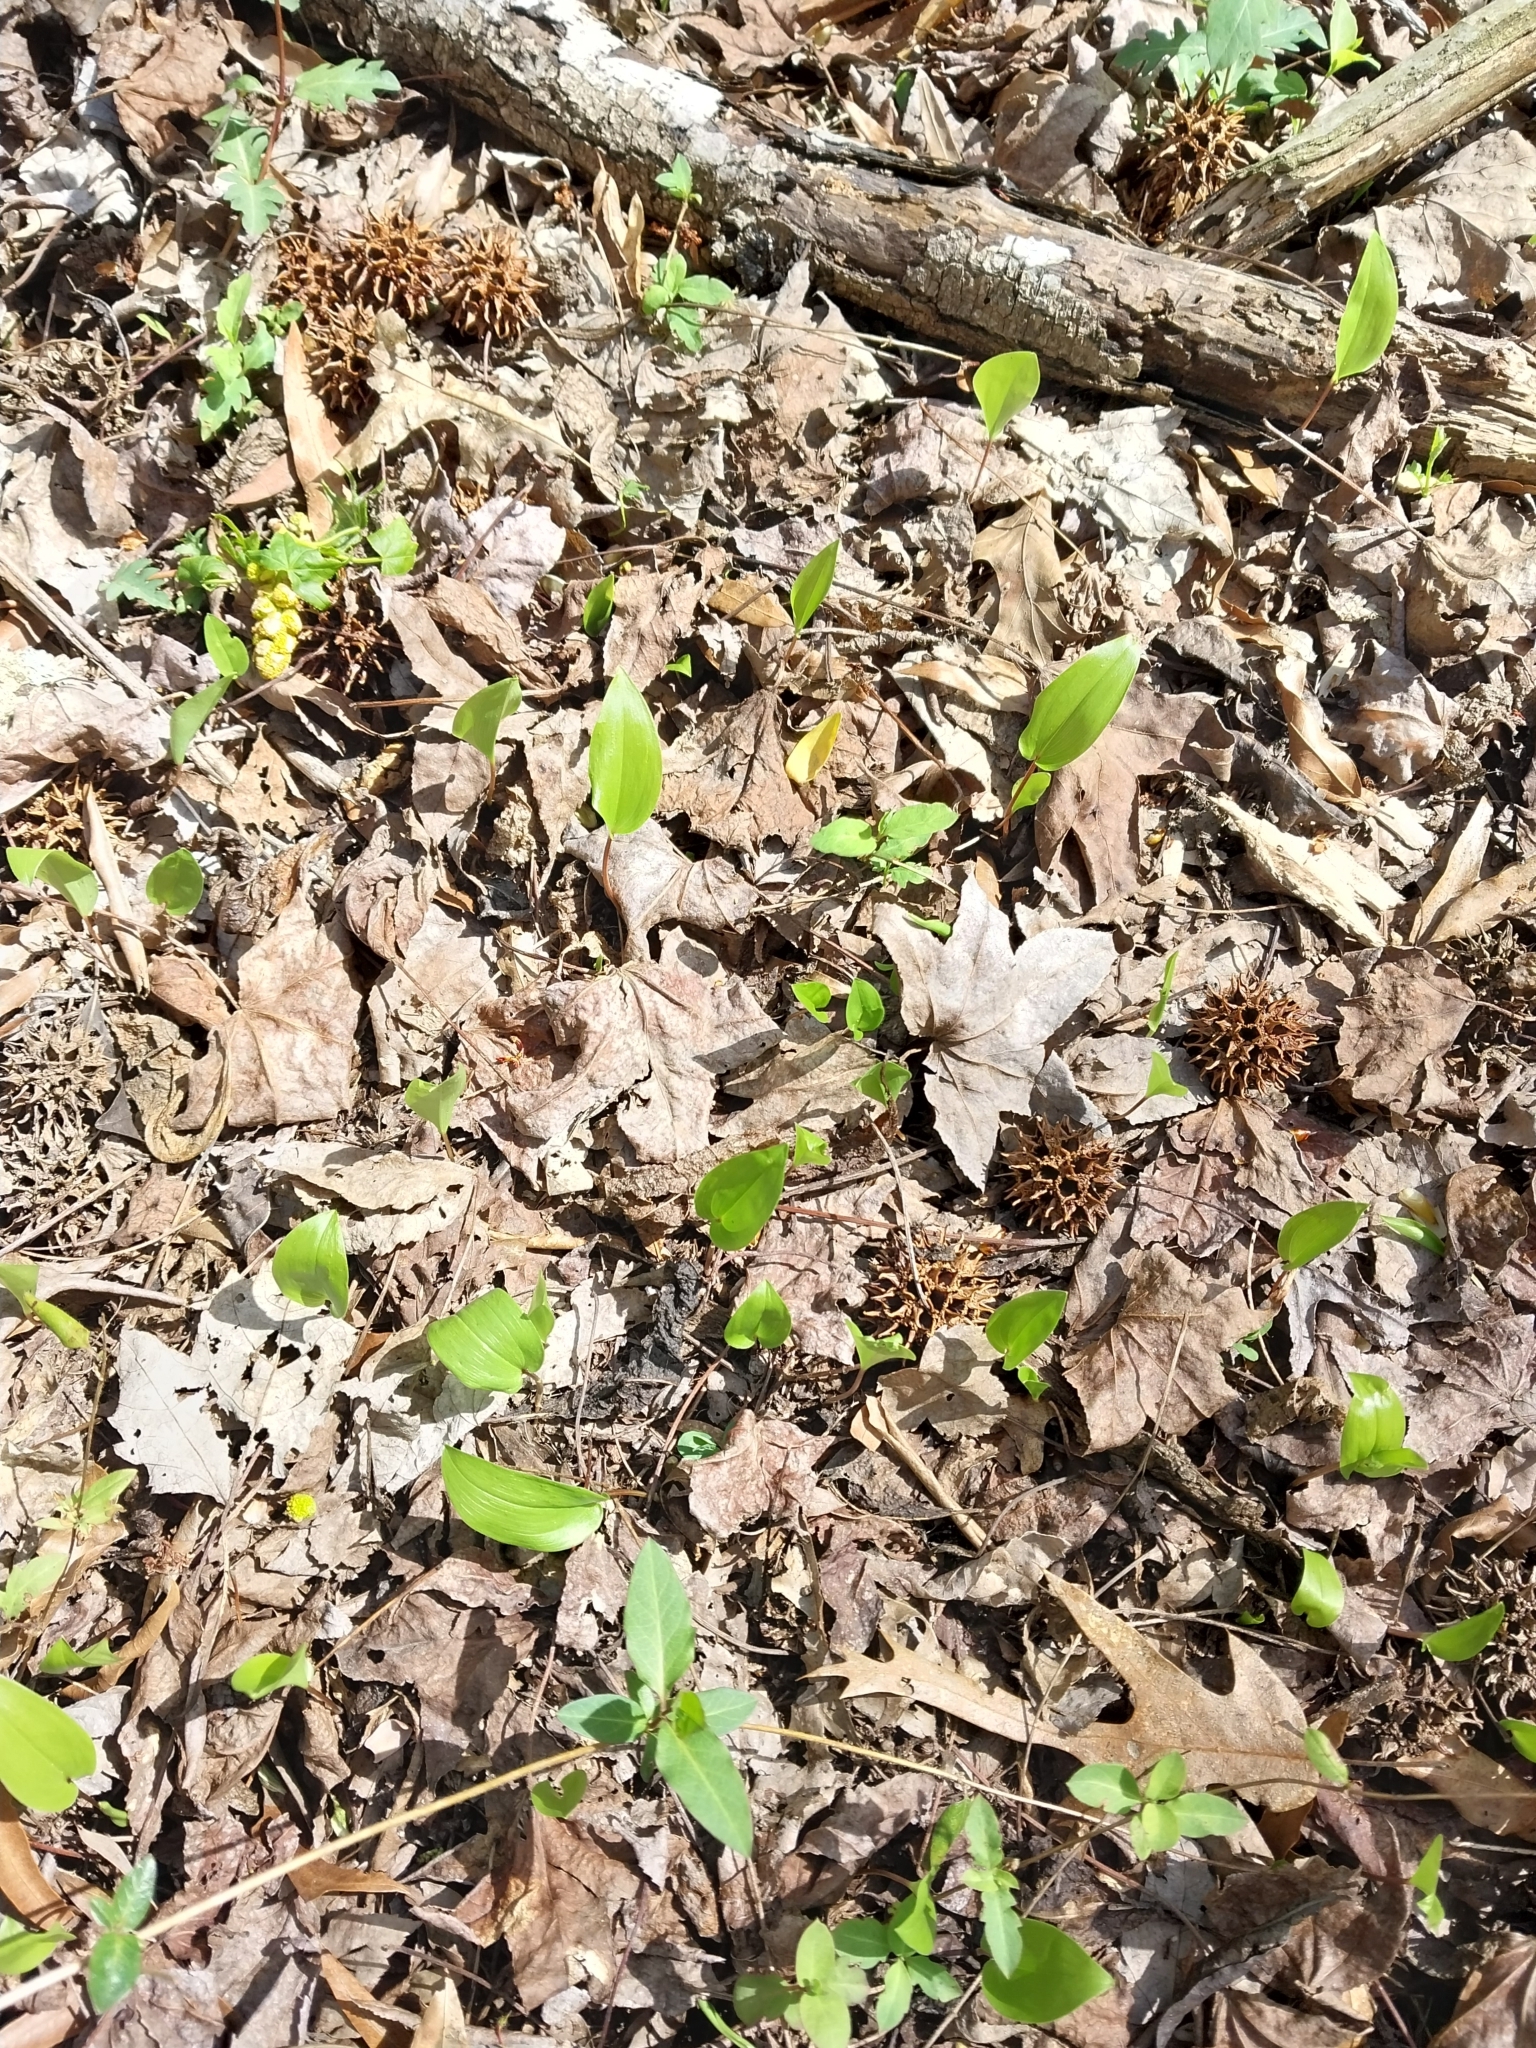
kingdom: Plantae
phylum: Tracheophyta
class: Liliopsida
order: Asparagales
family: Asparagaceae
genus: Maianthemum
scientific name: Maianthemum canadense
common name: False lily-of-the-valley
